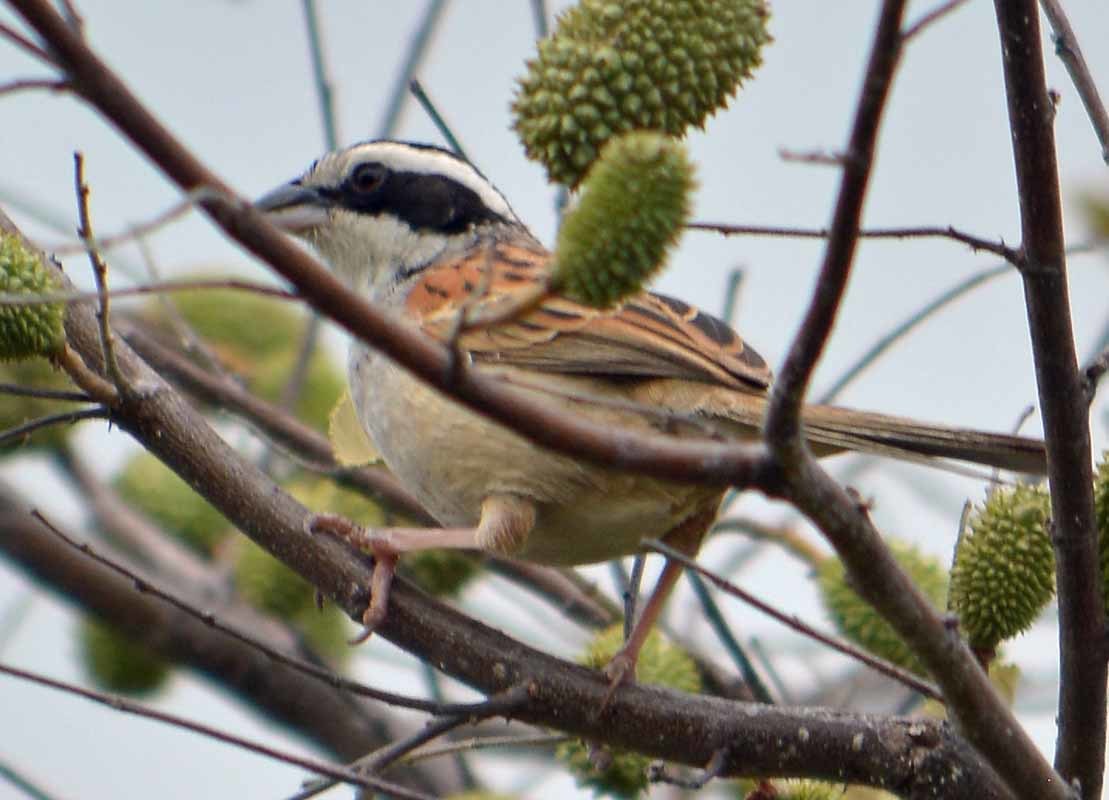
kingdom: Animalia
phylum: Chordata
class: Aves
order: Passeriformes
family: Passerellidae
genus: Peucaea
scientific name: Peucaea ruficauda
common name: Stripe-headed sparrow
